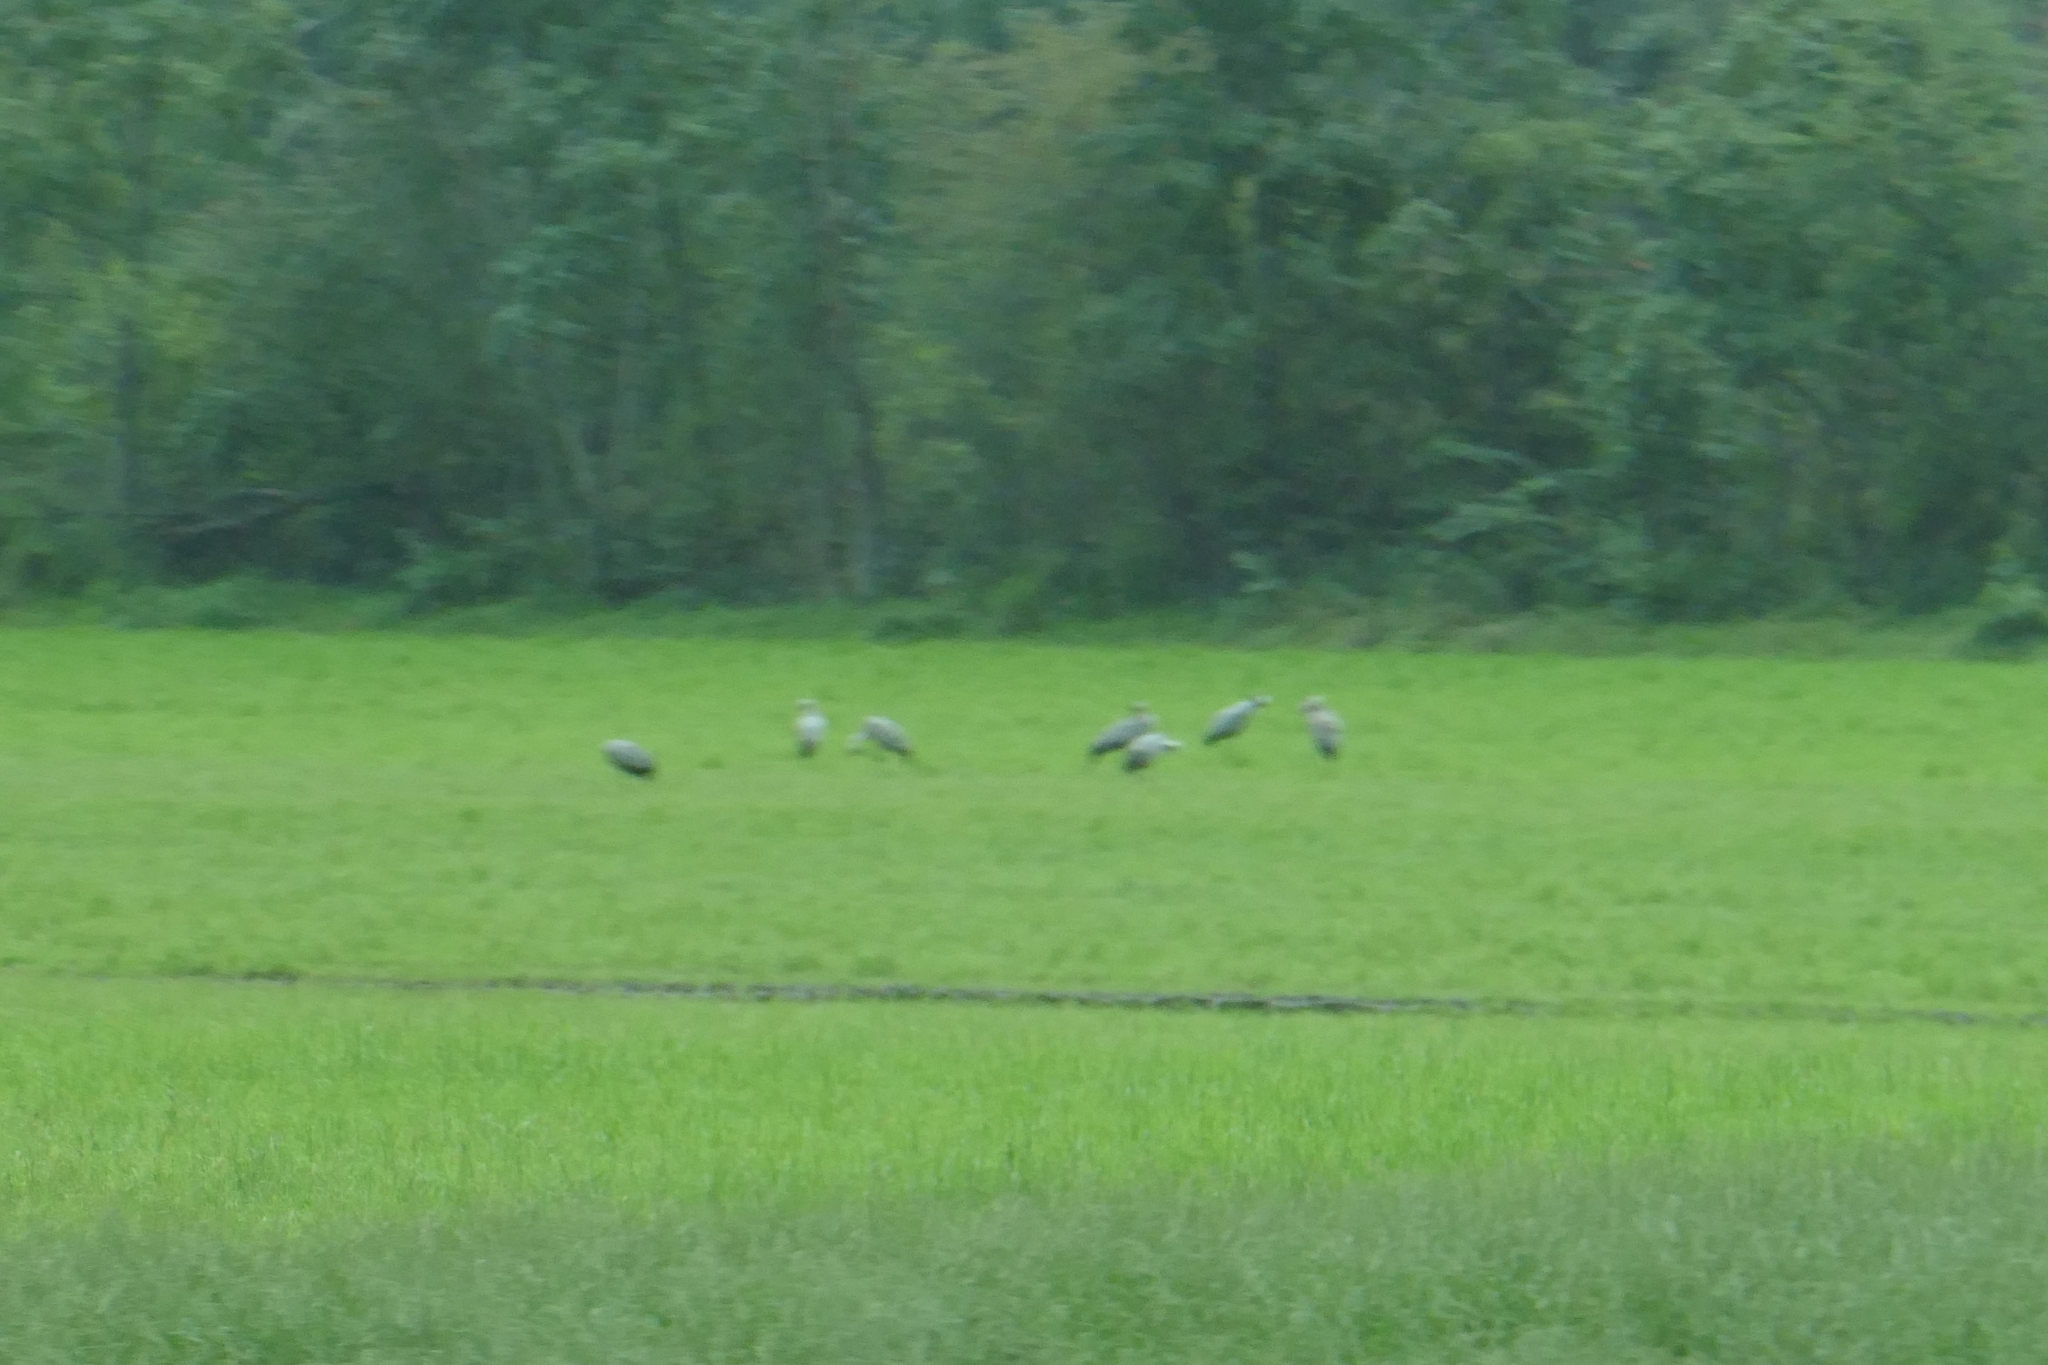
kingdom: Animalia
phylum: Chordata
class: Aves
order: Gruiformes
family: Gruidae
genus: Grus
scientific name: Grus grus
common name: Common crane
